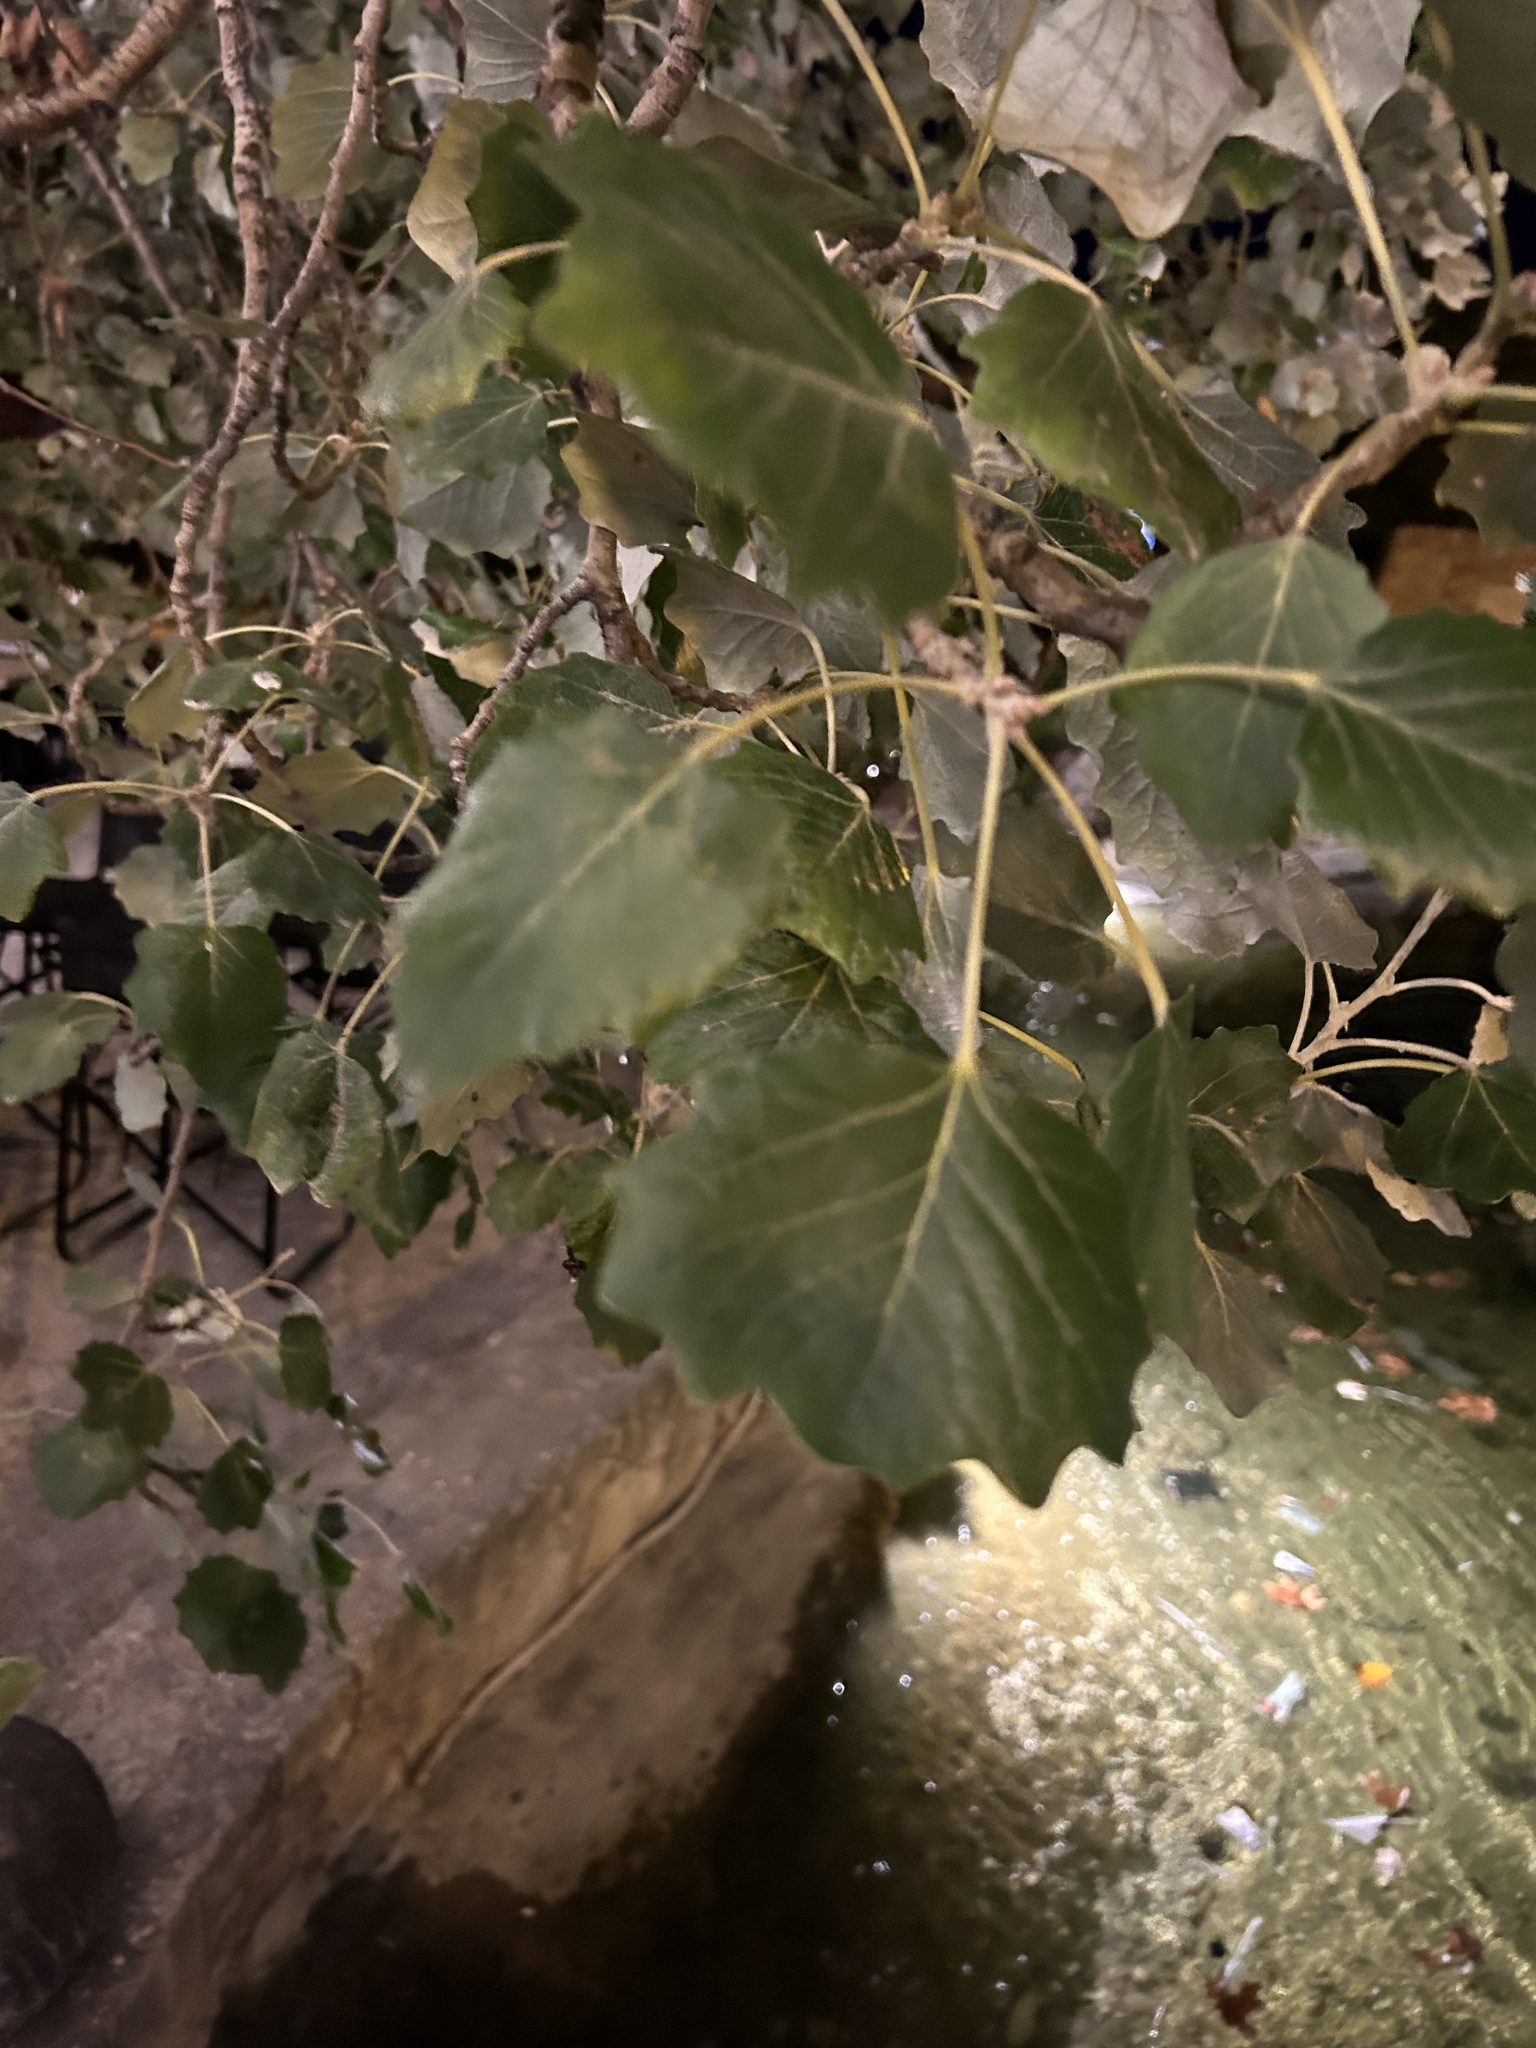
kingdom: Plantae
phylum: Tracheophyta
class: Magnoliopsida
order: Malpighiales
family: Salicaceae
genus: Populus
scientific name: Populus alba
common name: White poplar
